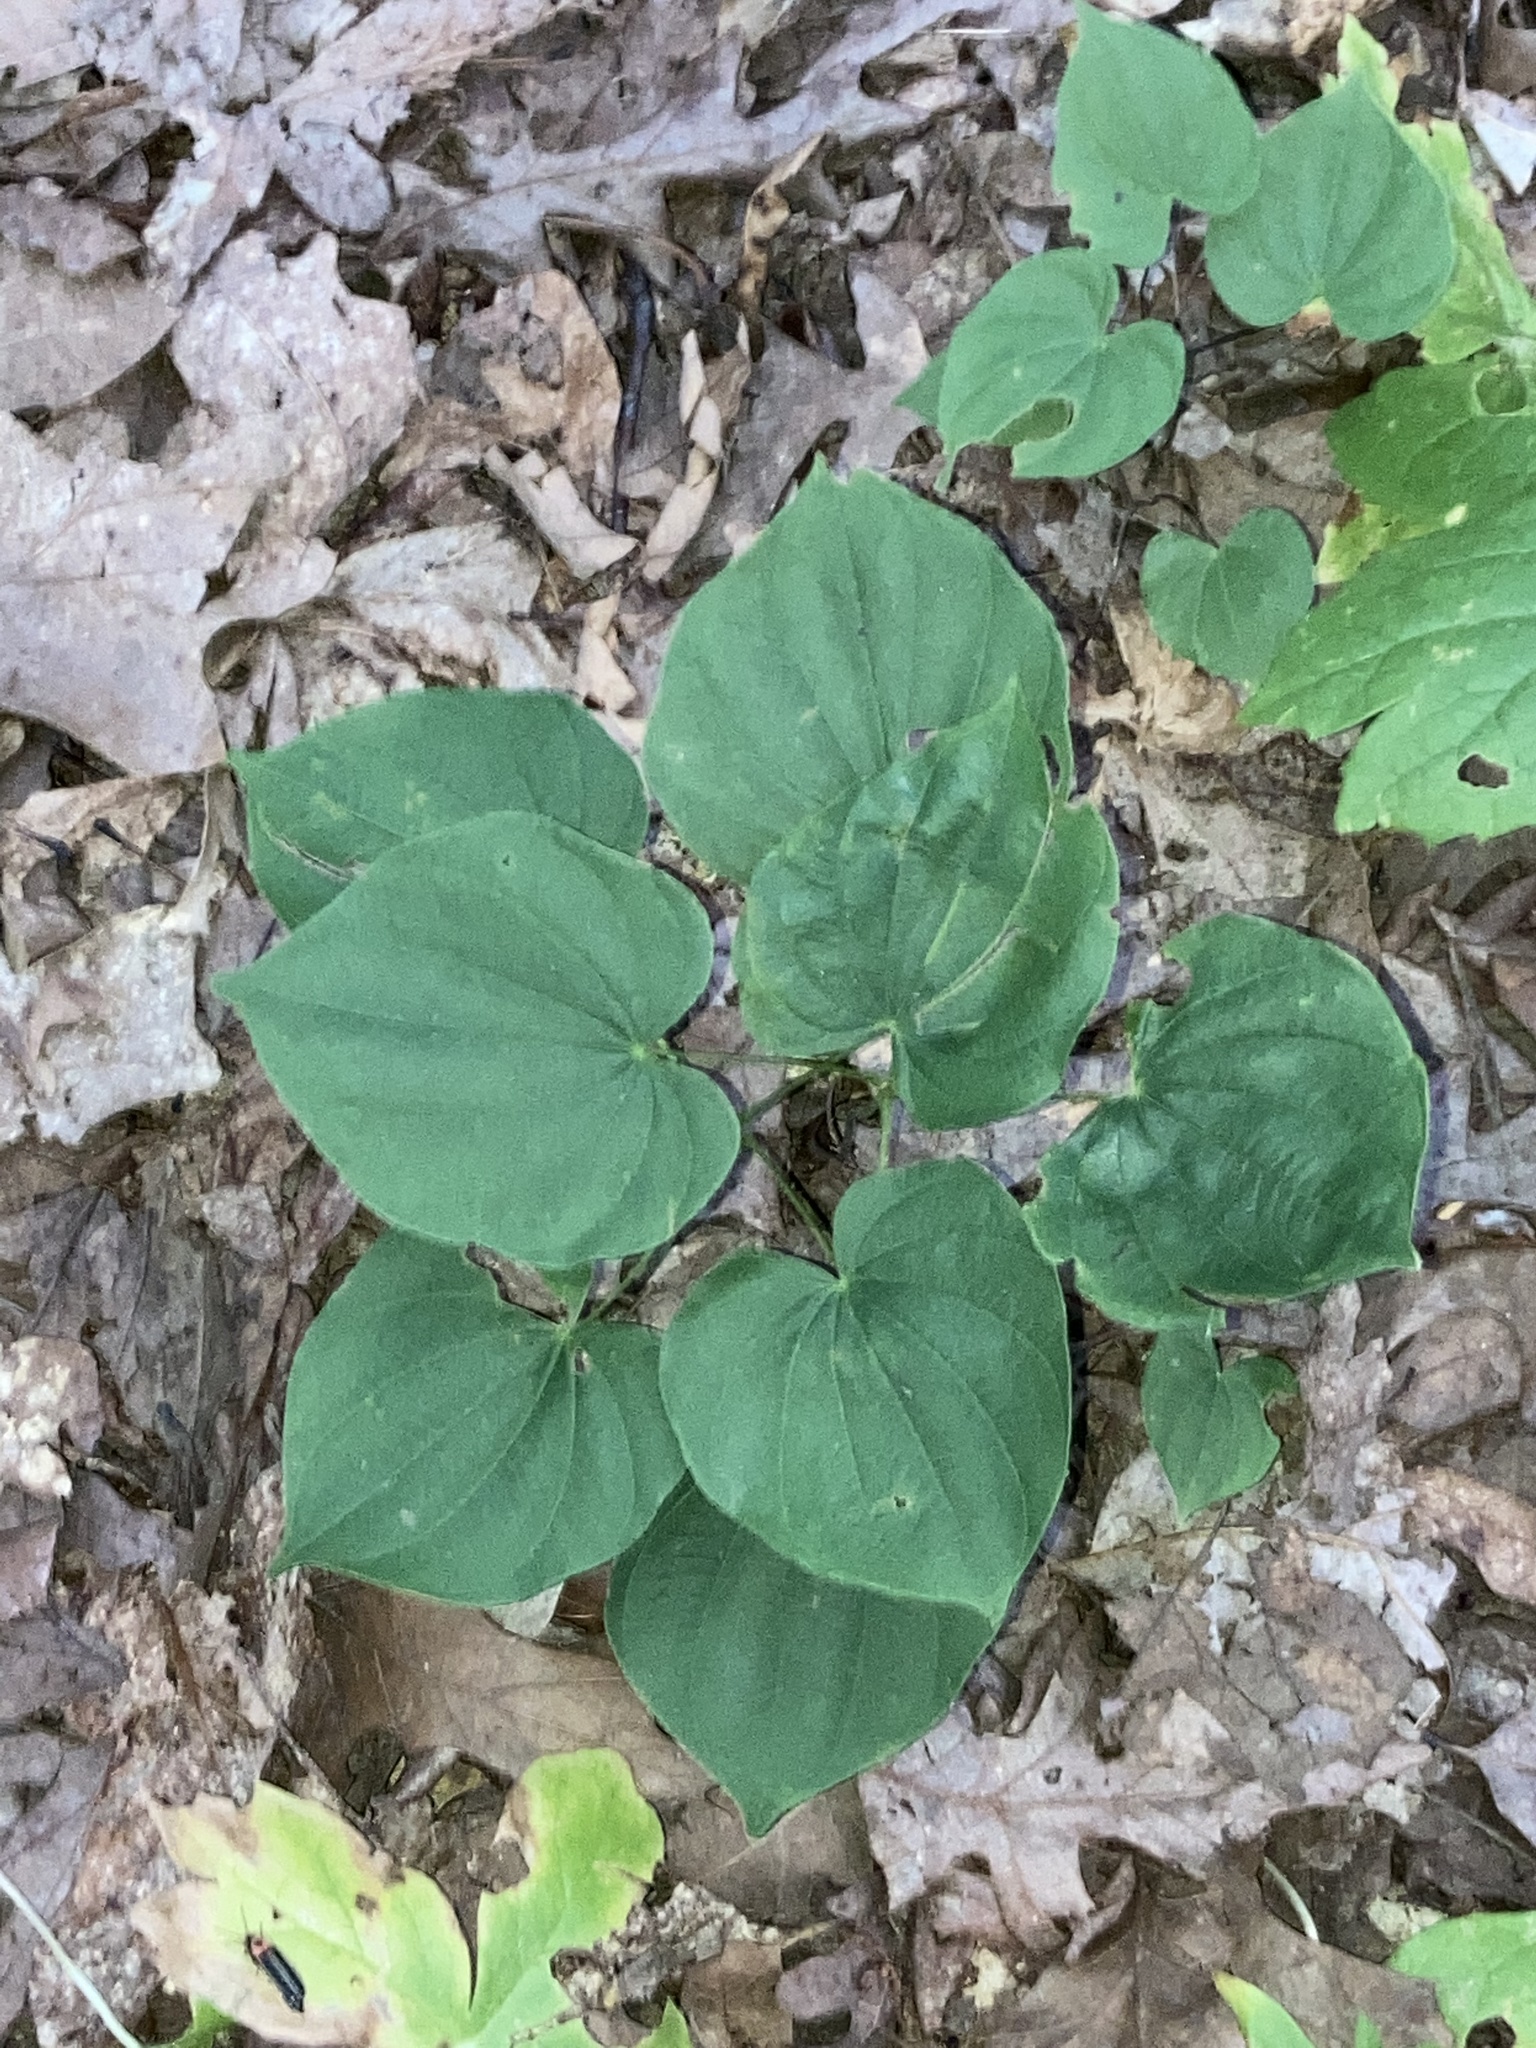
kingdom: Plantae
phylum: Tracheophyta
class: Liliopsida
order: Dioscoreales
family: Dioscoreaceae
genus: Dioscorea
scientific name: Dioscorea villosa
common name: Wild yam
